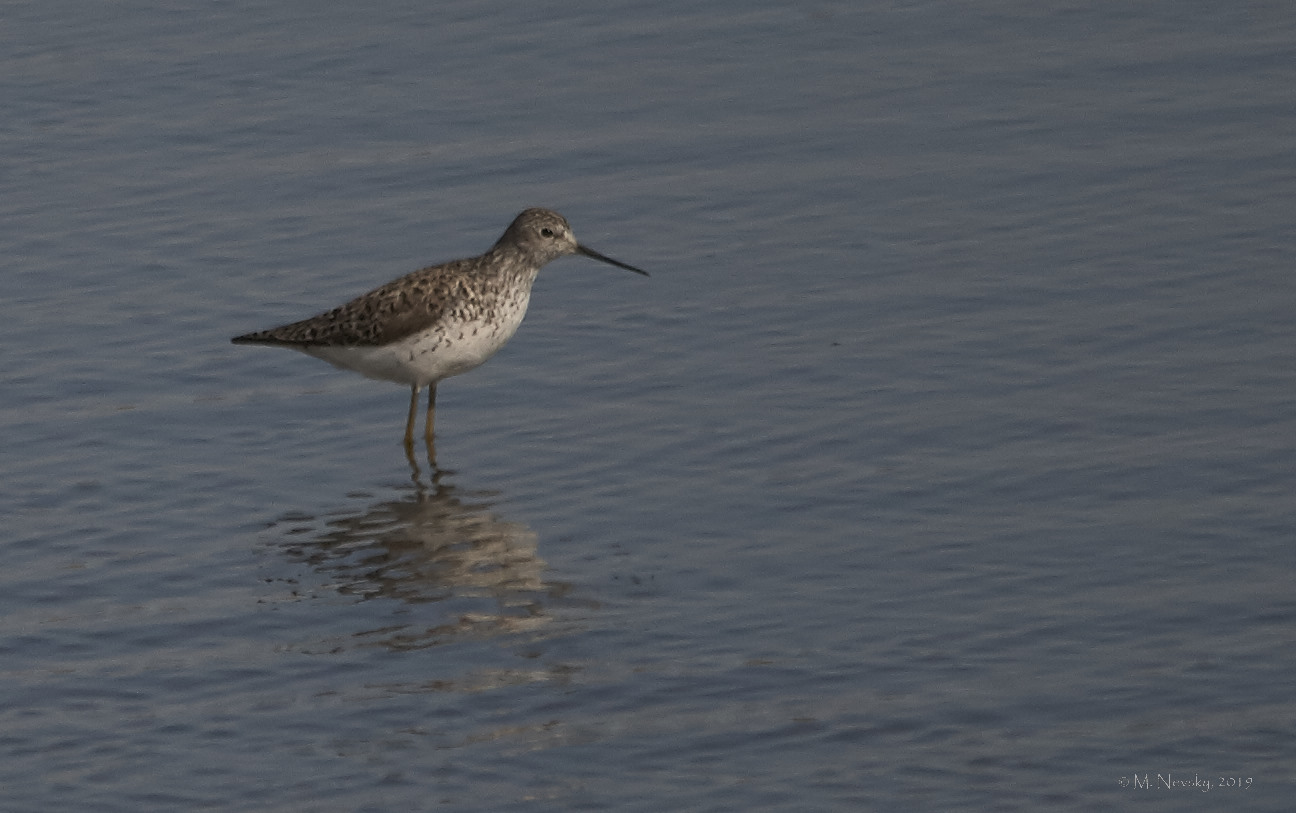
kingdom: Animalia
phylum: Chordata
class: Aves
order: Charadriiformes
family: Scolopacidae
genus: Tringa
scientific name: Tringa stagnatilis
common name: Marsh sandpiper
